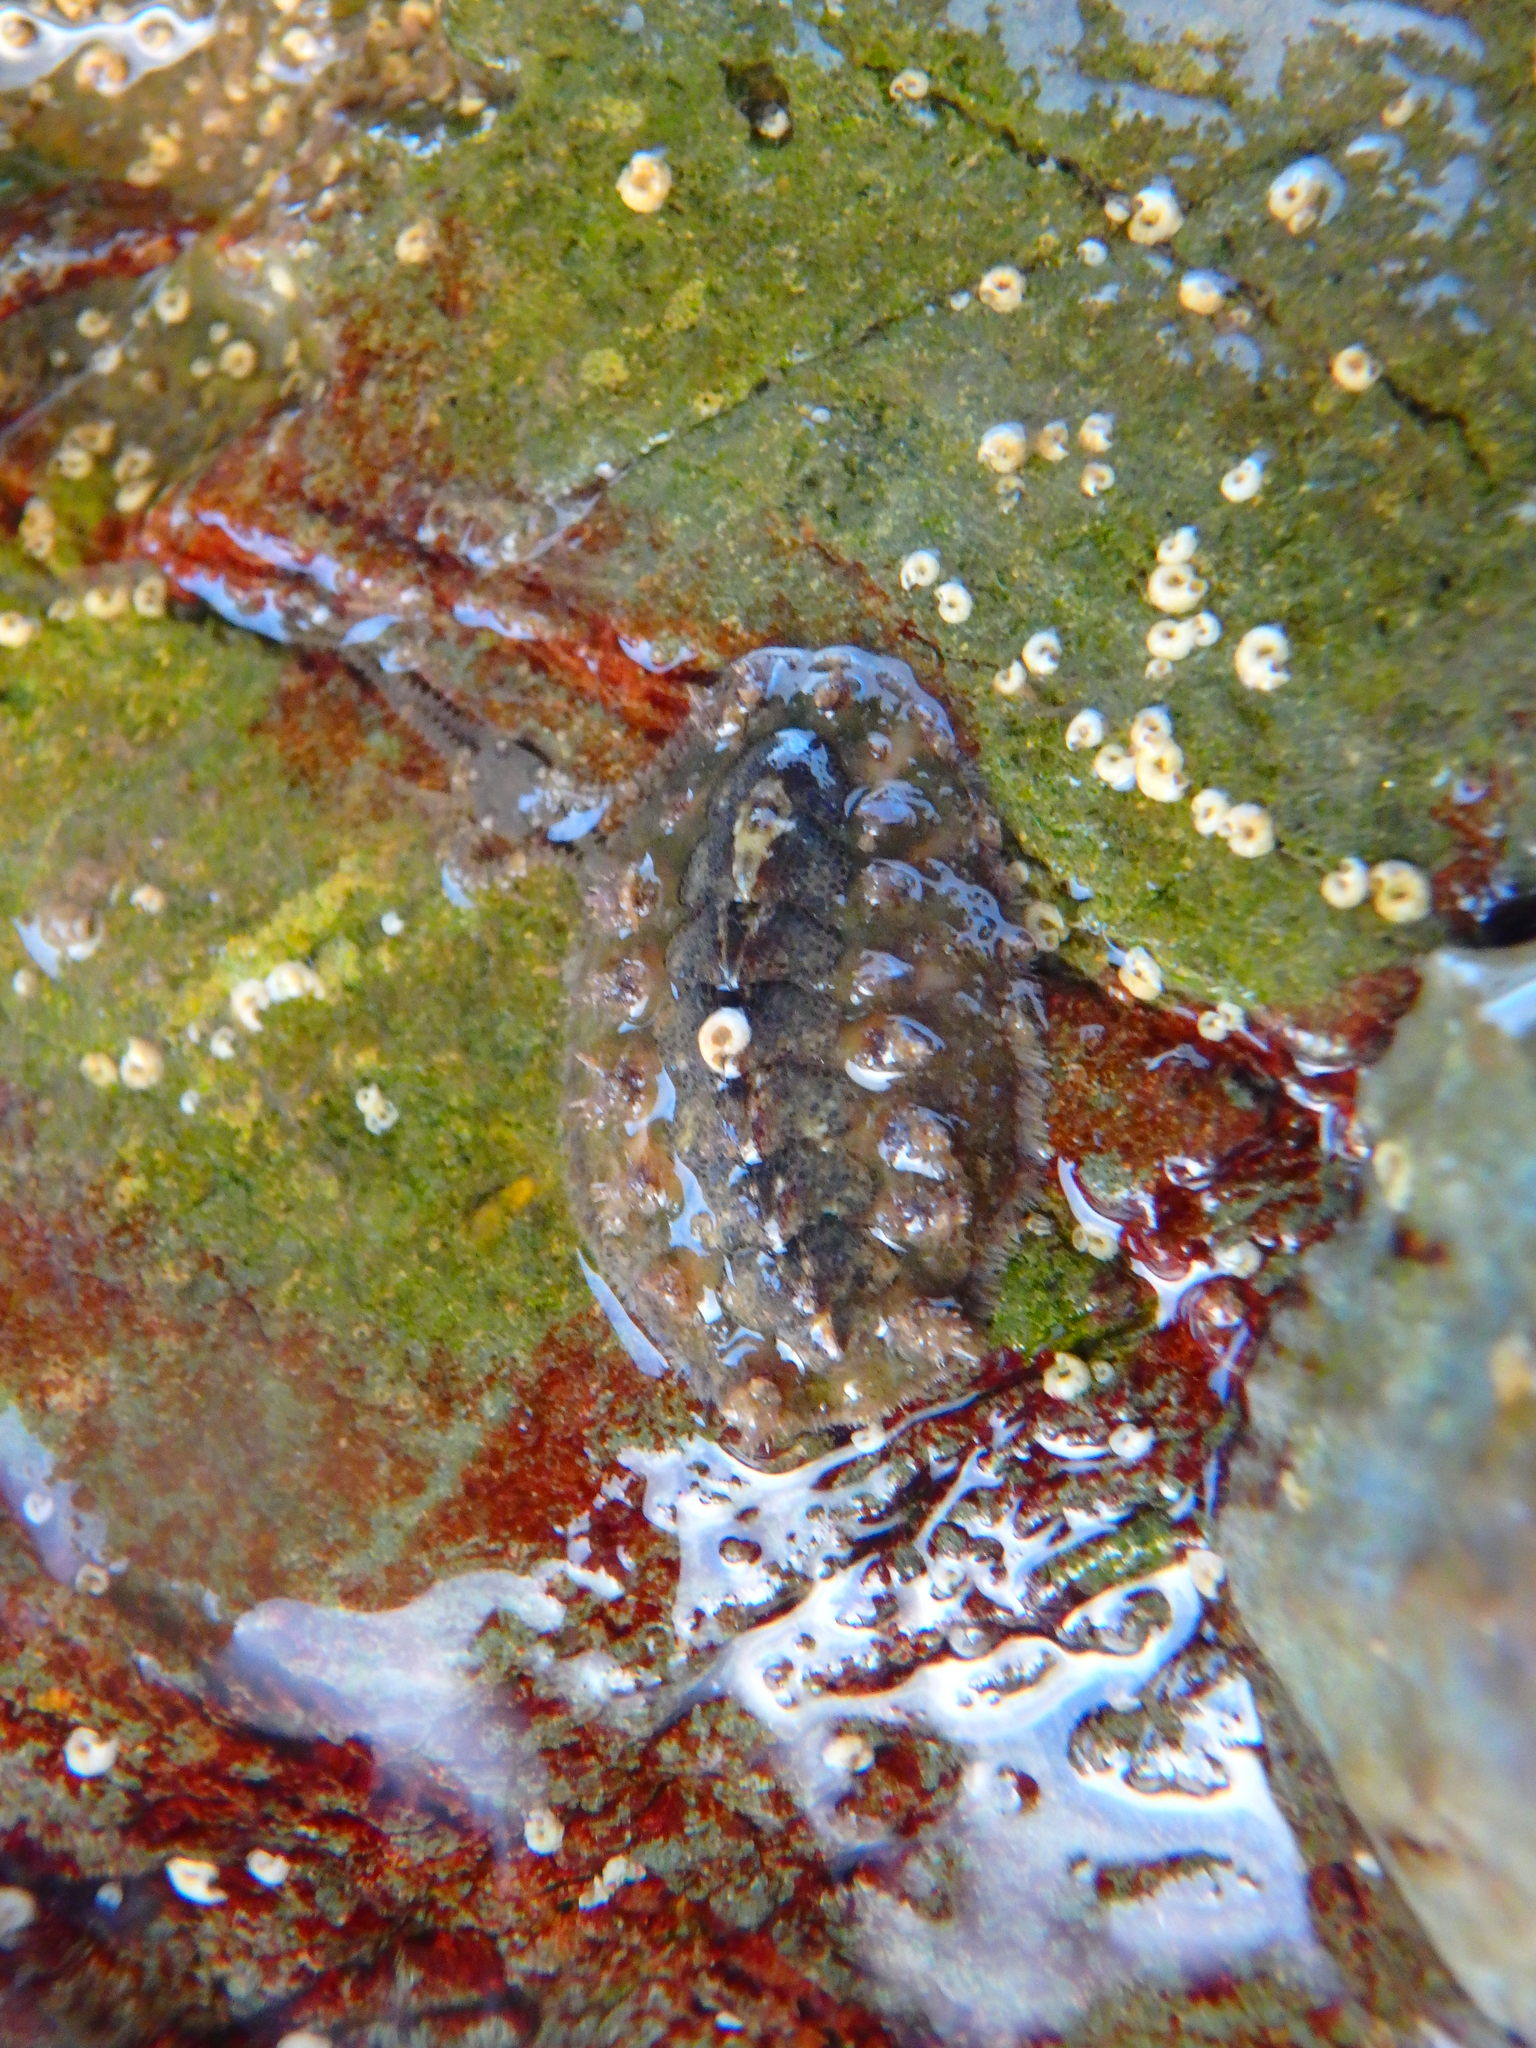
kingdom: Animalia
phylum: Mollusca
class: Polyplacophora
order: Chitonida
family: Acanthochitonidae
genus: Acanthochitona
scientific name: Acanthochitona crinita
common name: Bristly mail chiton
